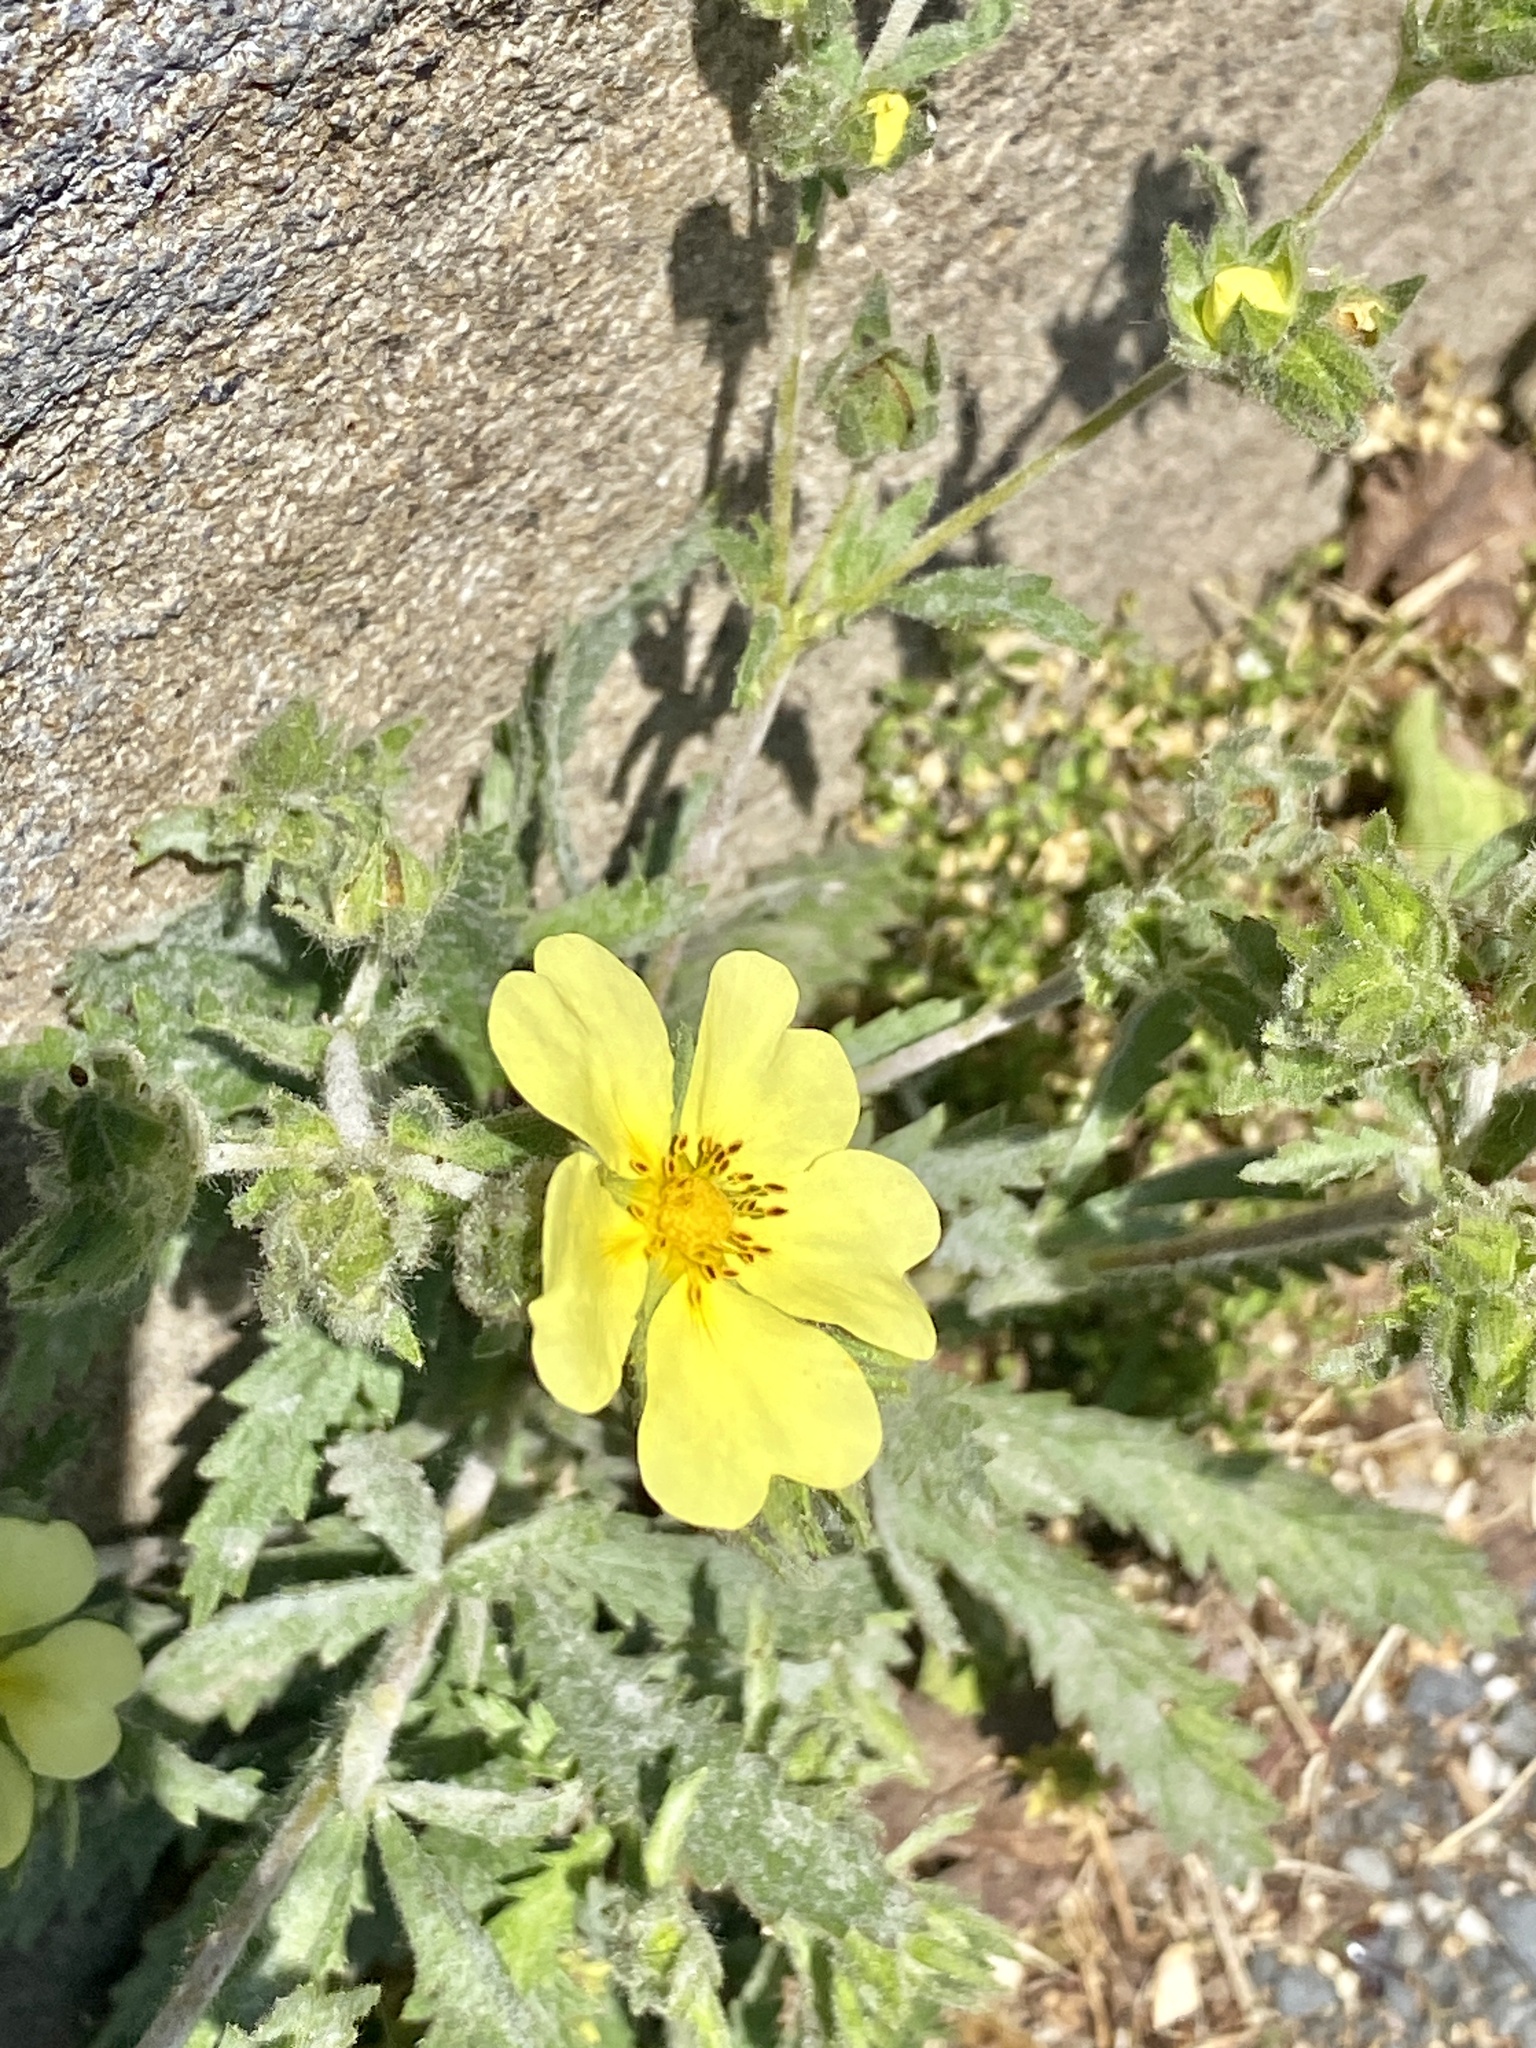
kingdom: Plantae
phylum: Tracheophyta
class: Magnoliopsida
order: Rosales
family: Rosaceae
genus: Potentilla
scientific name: Potentilla recta
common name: Sulphur cinquefoil
